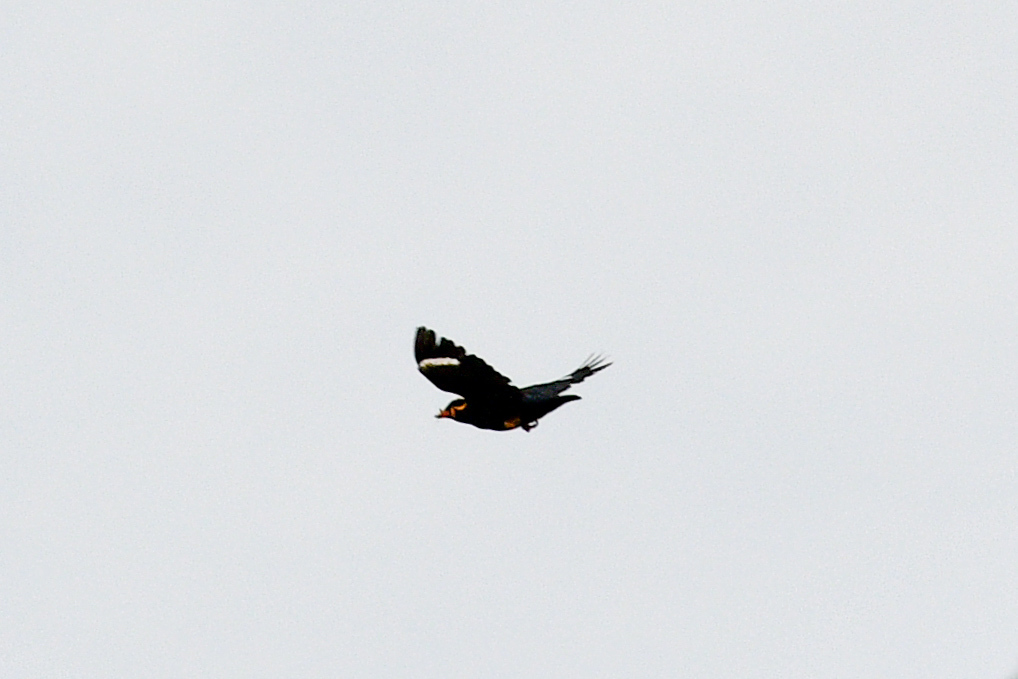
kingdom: Animalia
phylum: Chordata
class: Aves
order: Passeriformes
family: Sturnidae
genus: Gracula
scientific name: Gracula religiosa
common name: Common hill myna
